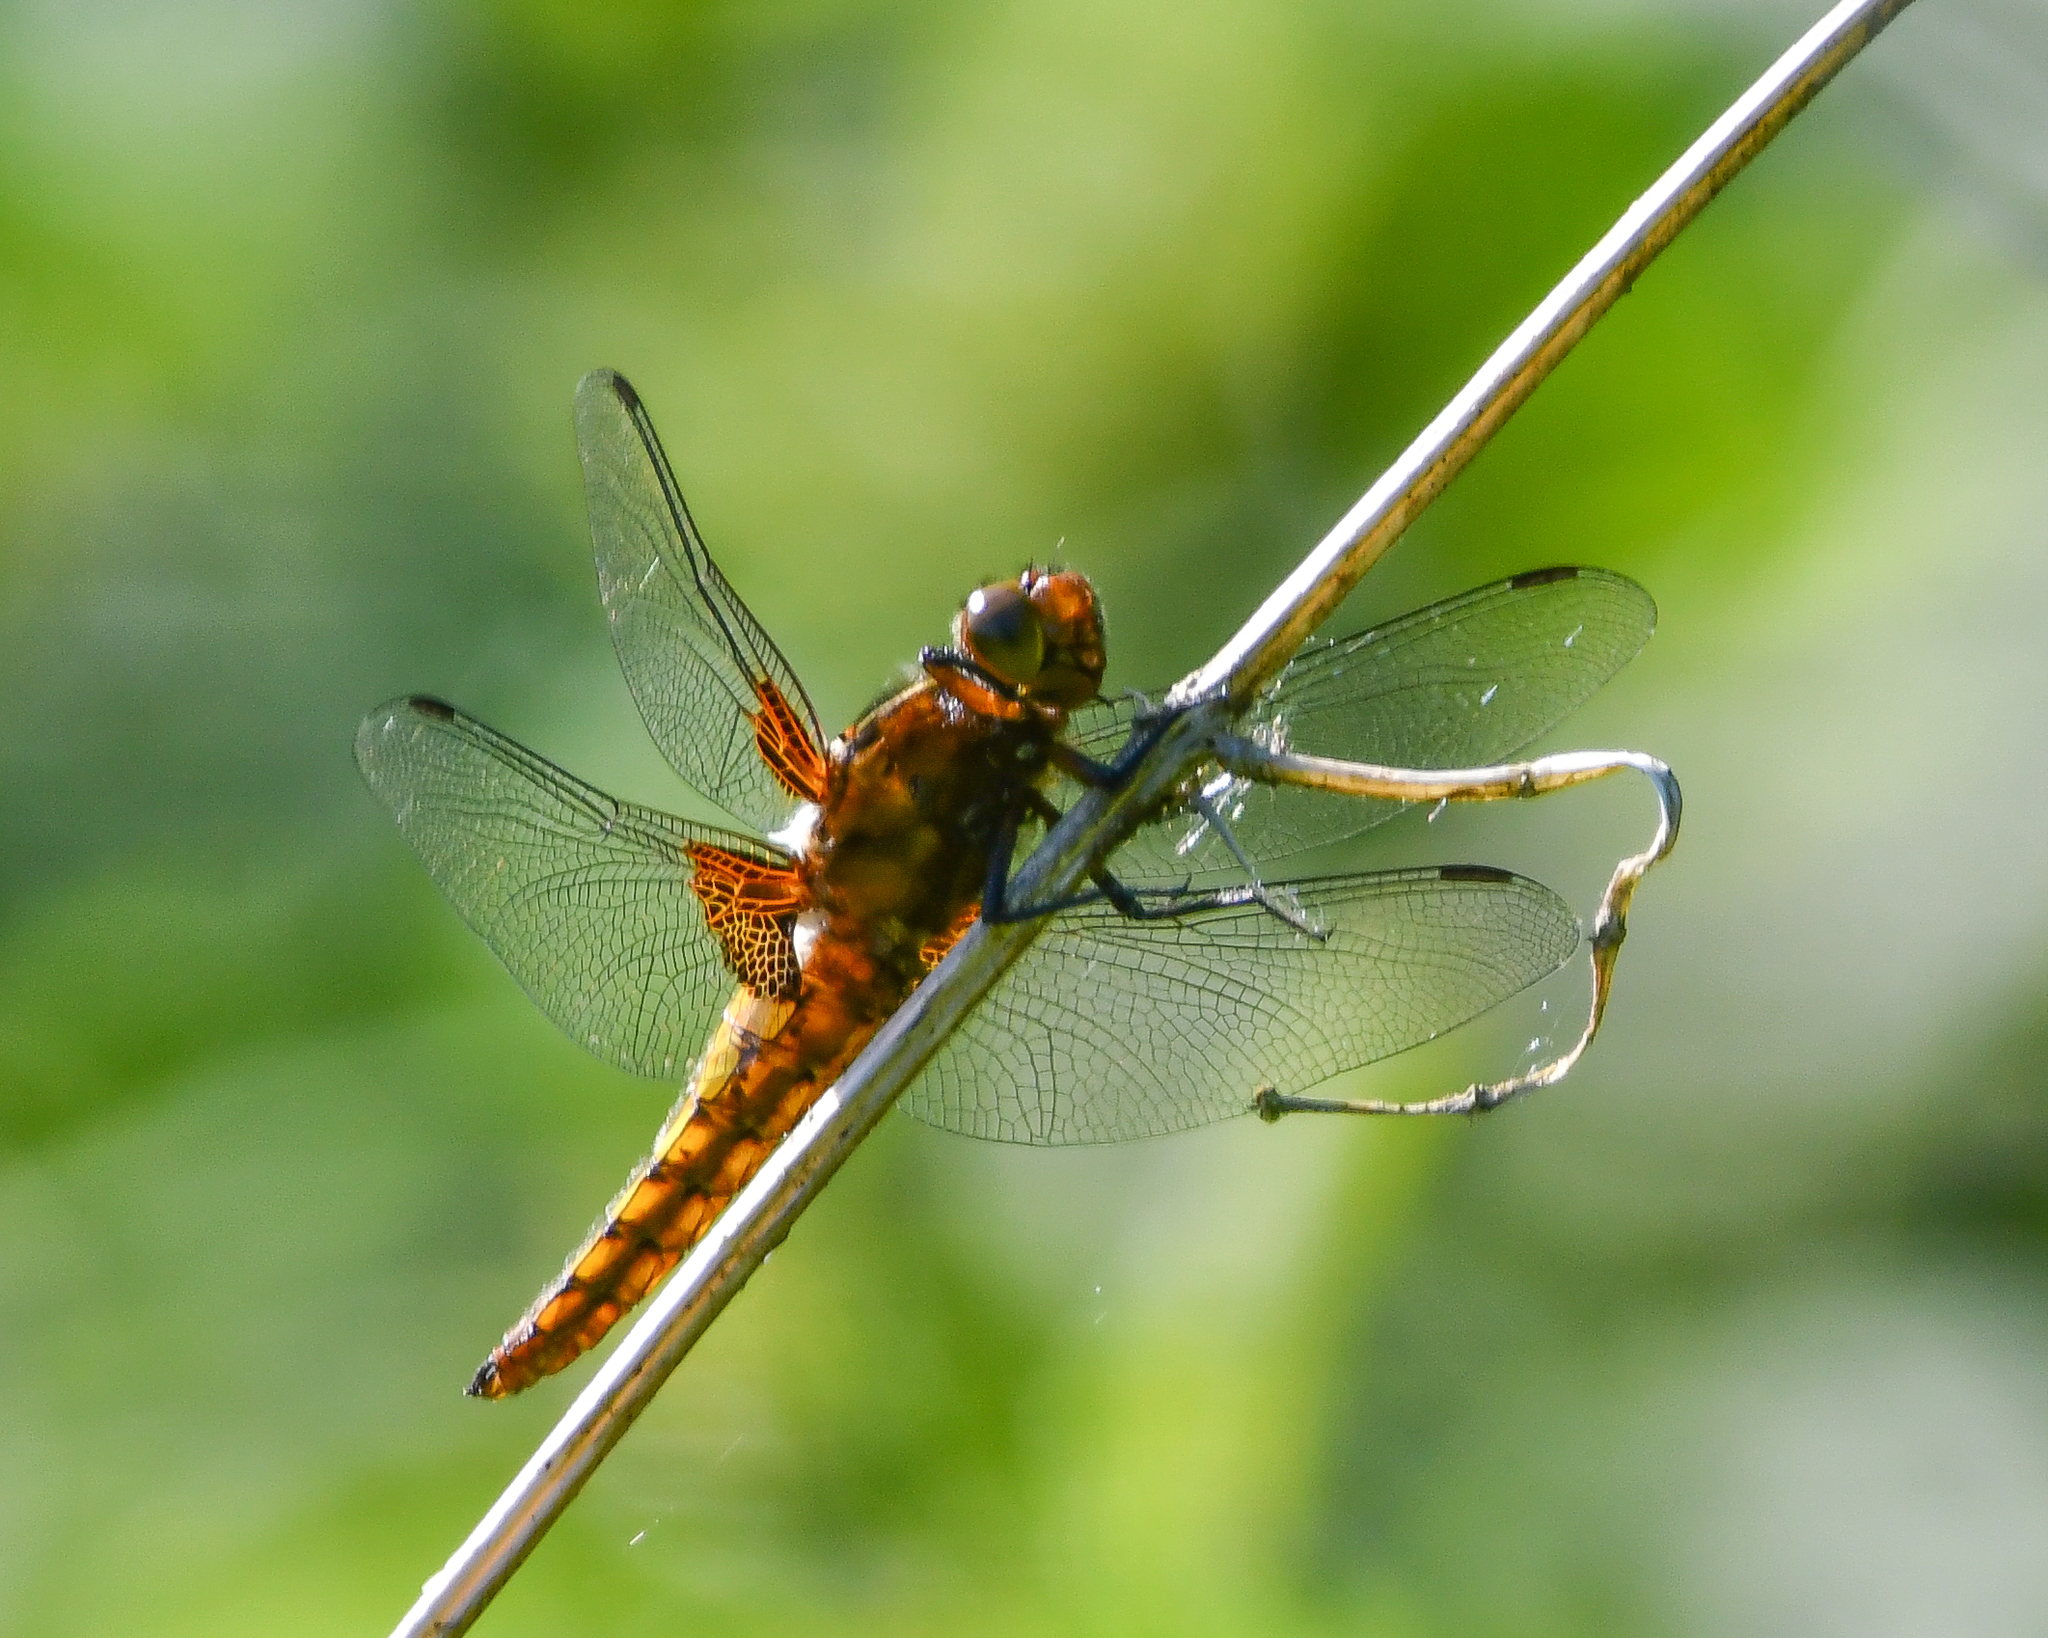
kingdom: Animalia
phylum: Arthropoda
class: Insecta
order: Odonata
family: Libellulidae
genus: Libellula
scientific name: Libellula depressa
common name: Broad-bodied chaser
